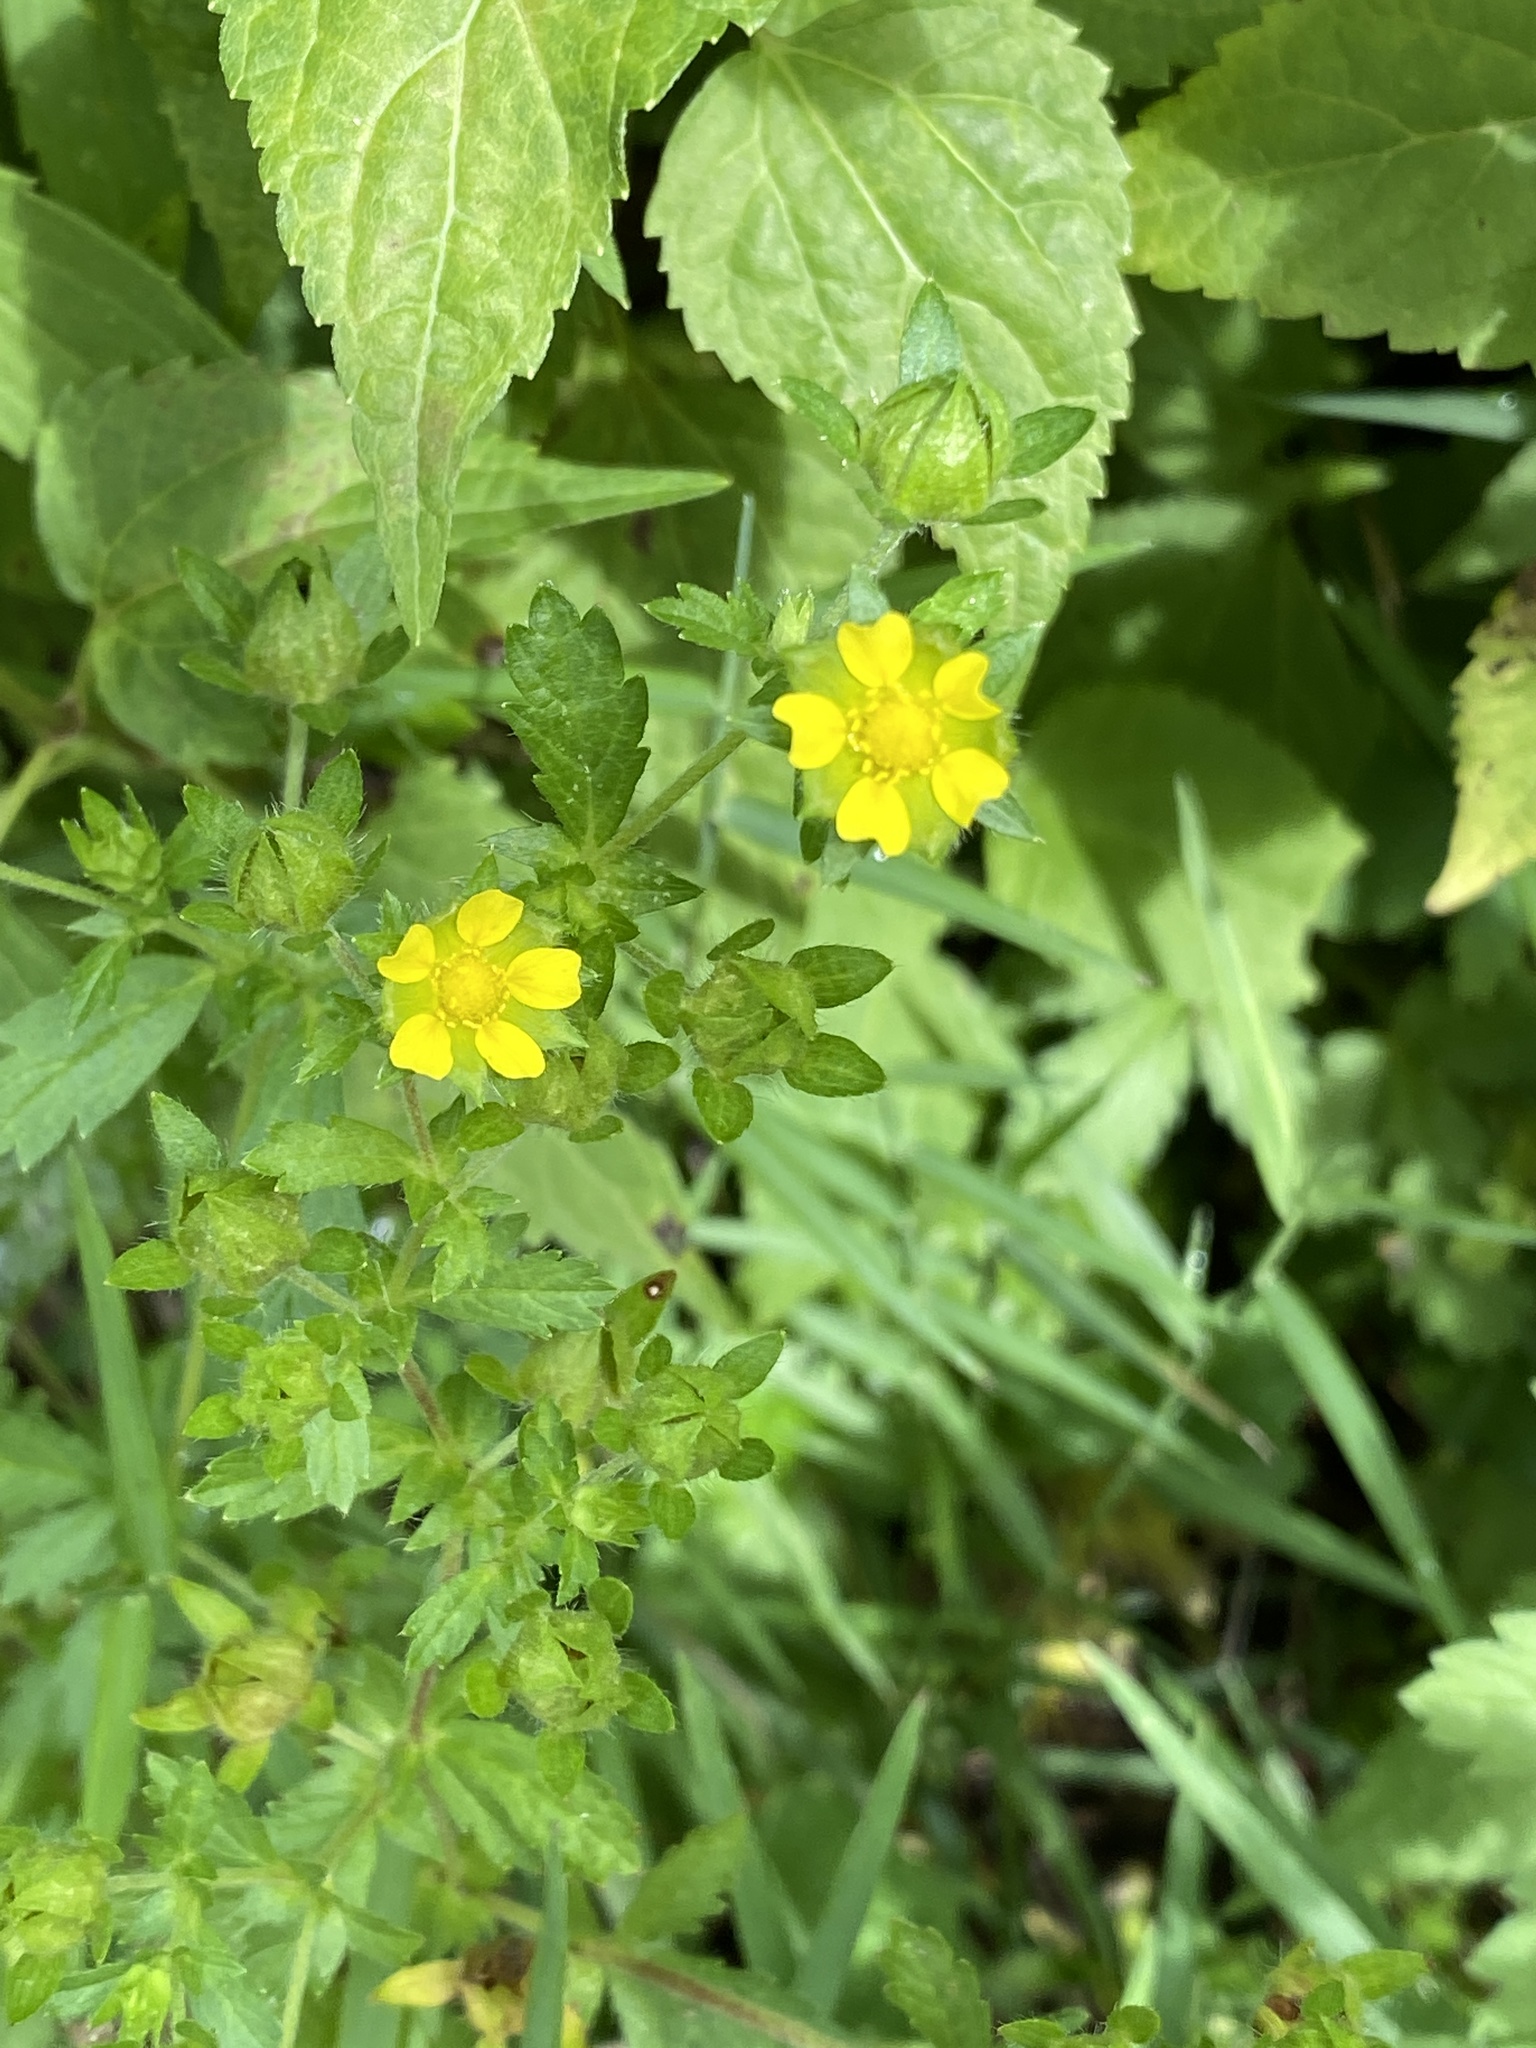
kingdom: Plantae
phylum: Tracheophyta
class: Magnoliopsida
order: Rosales
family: Rosaceae
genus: Potentilla
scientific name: Potentilla norvegica
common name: Ternate-leaved cinquefoil
